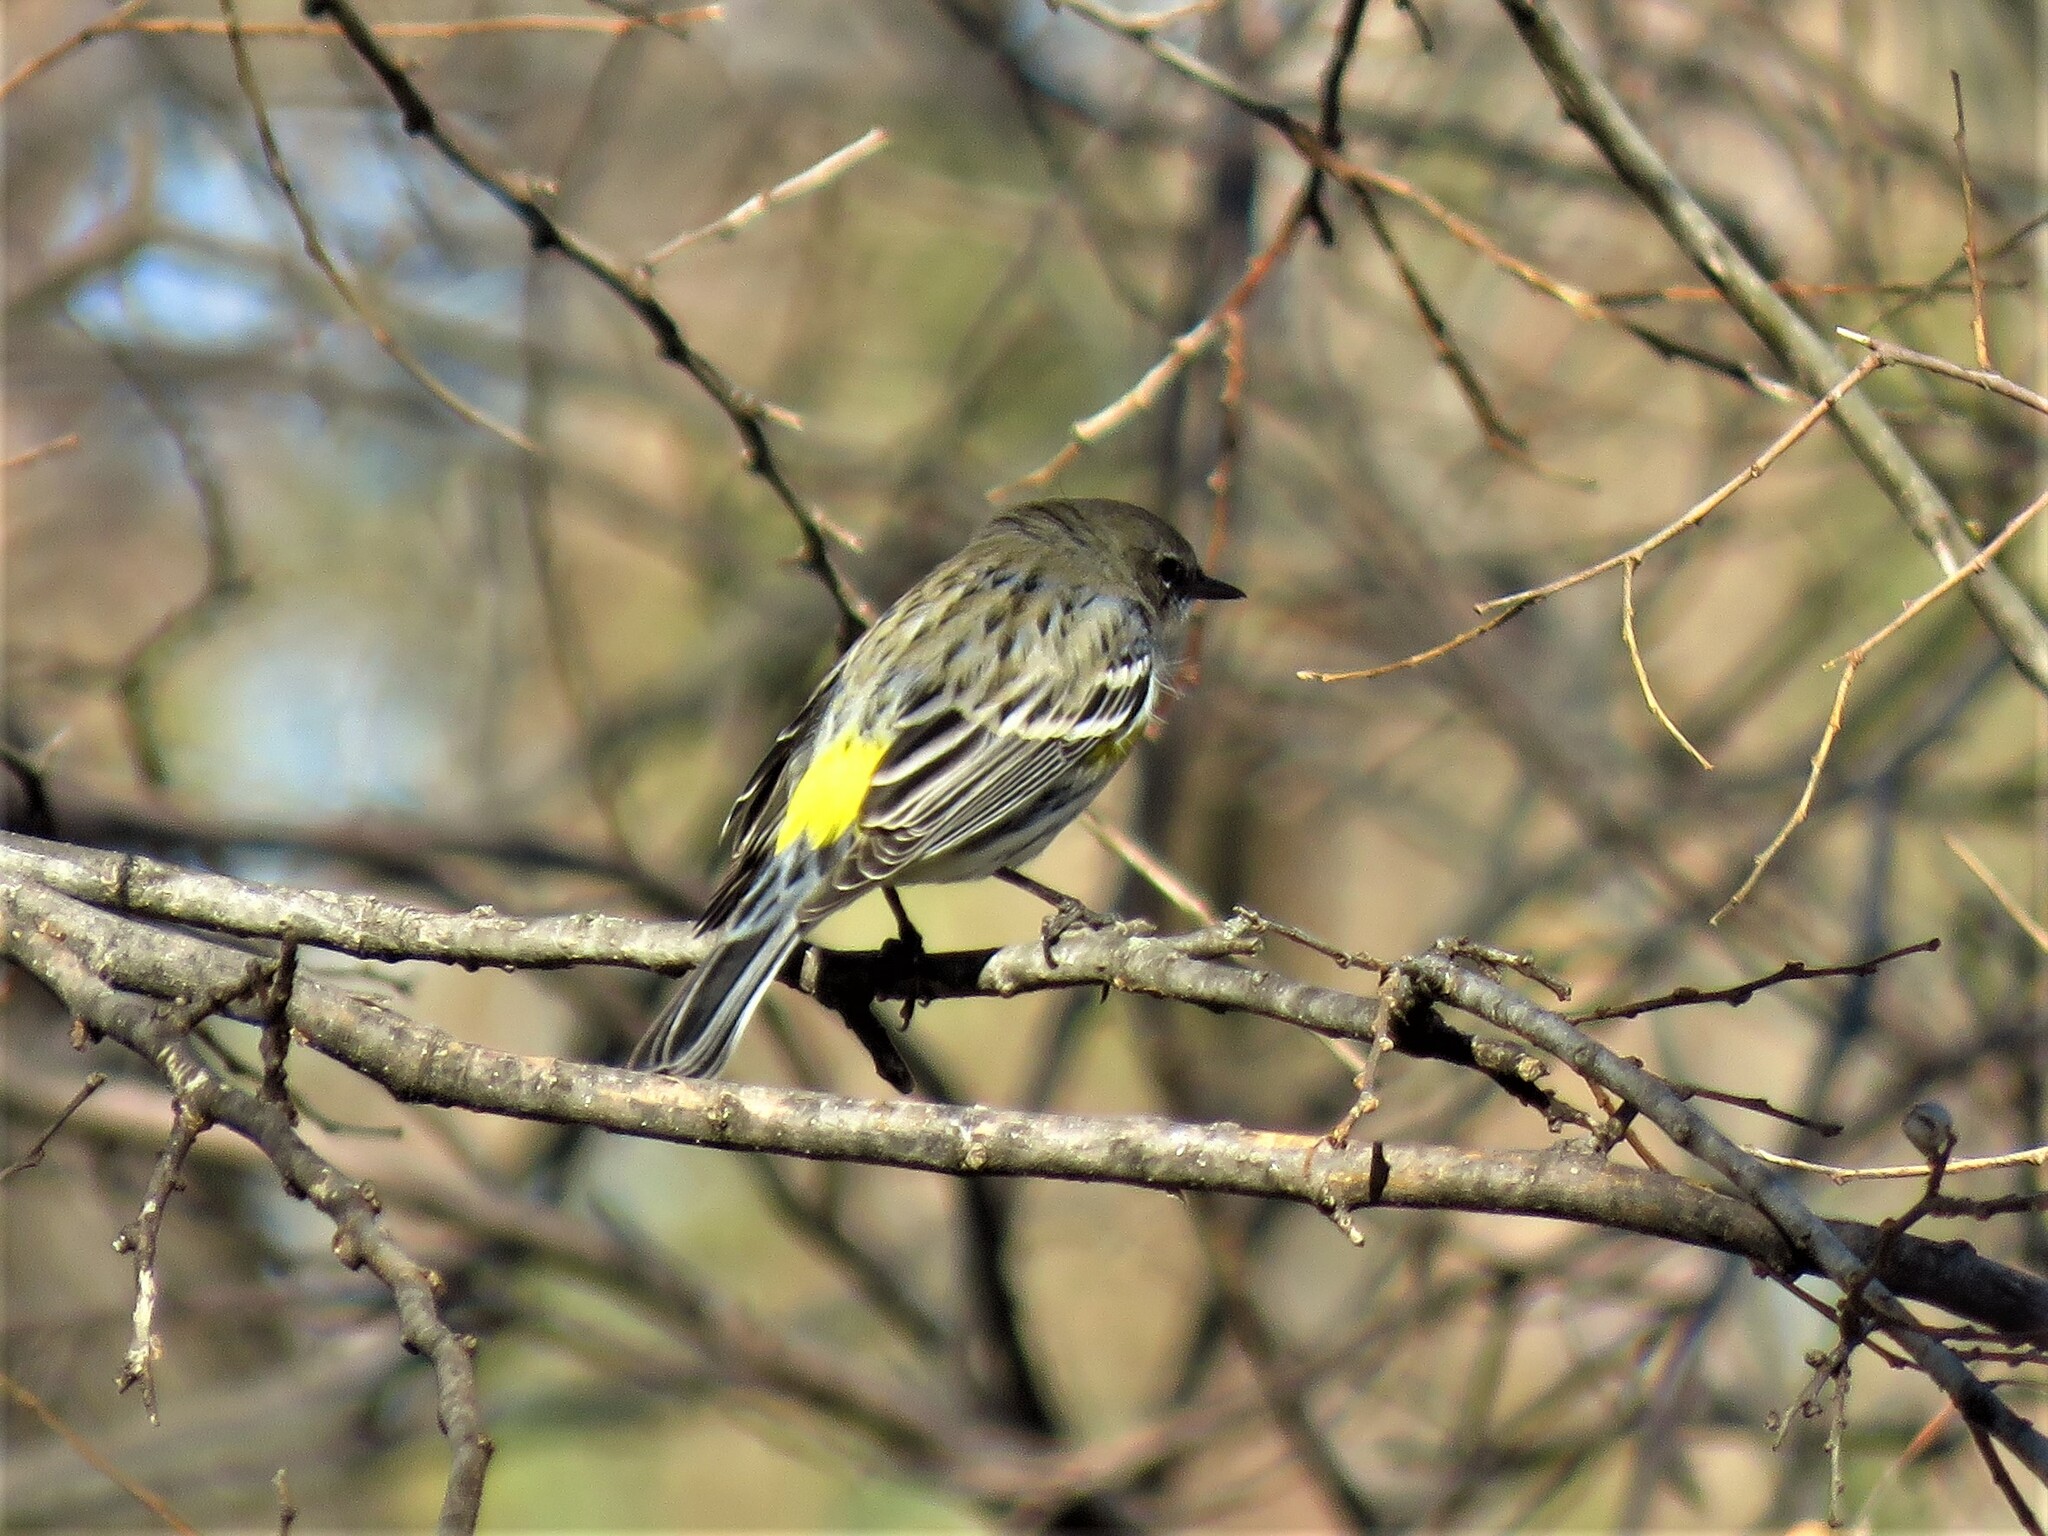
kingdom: Animalia
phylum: Chordata
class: Aves
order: Passeriformes
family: Parulidae
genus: Setophaga
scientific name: Setophaga coronata
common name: Myrtle warbler
